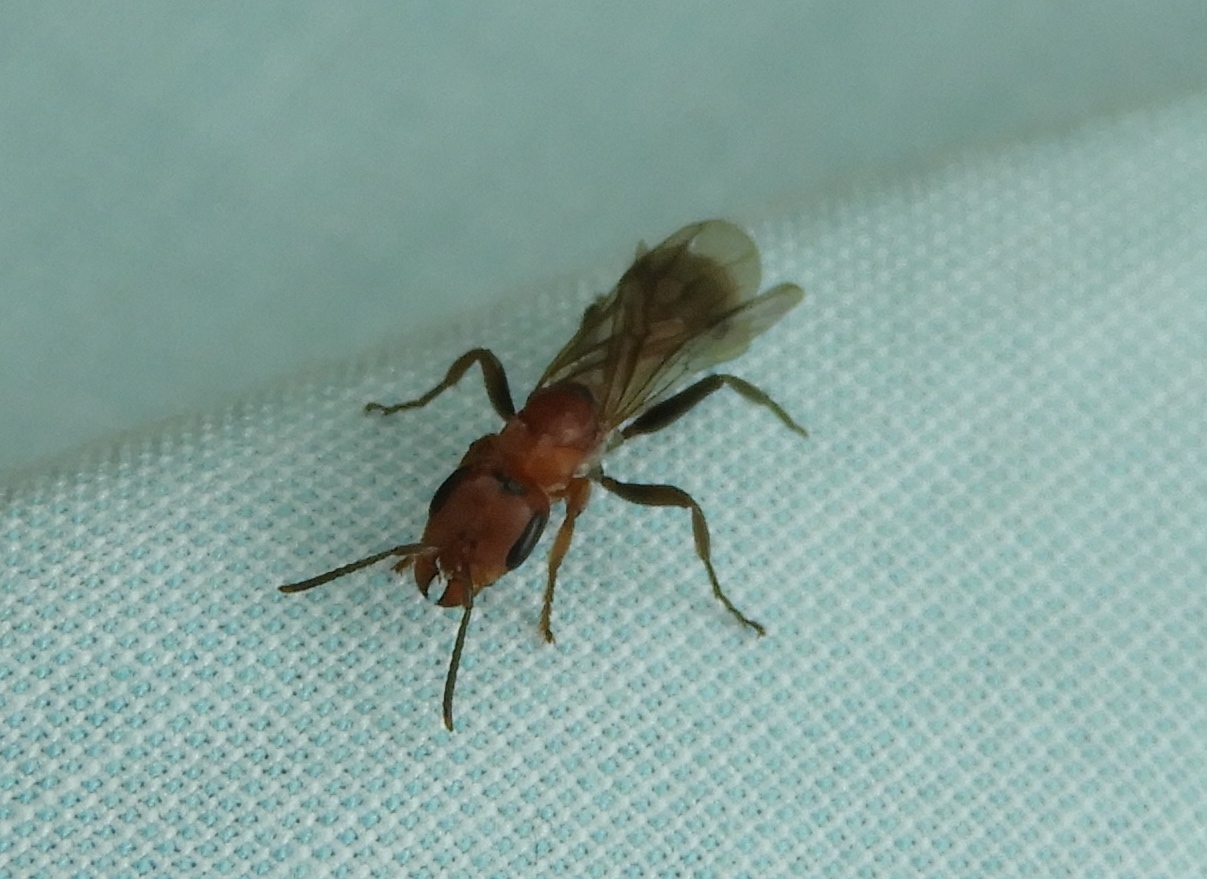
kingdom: Animalia
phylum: Arthropoda
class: Insecta
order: Hymenoptera
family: Formicidae
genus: Pseudomyrmex
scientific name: Pseudomyrmex
